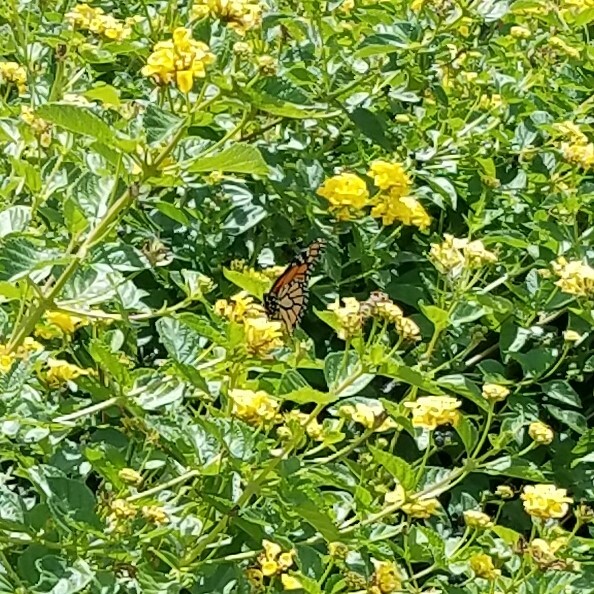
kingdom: Animalia
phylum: Arthropoda
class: Insecta
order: Lepidoptera
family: Nymphalidae
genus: Danaus
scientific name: Danaus plexippus
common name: Monarch
